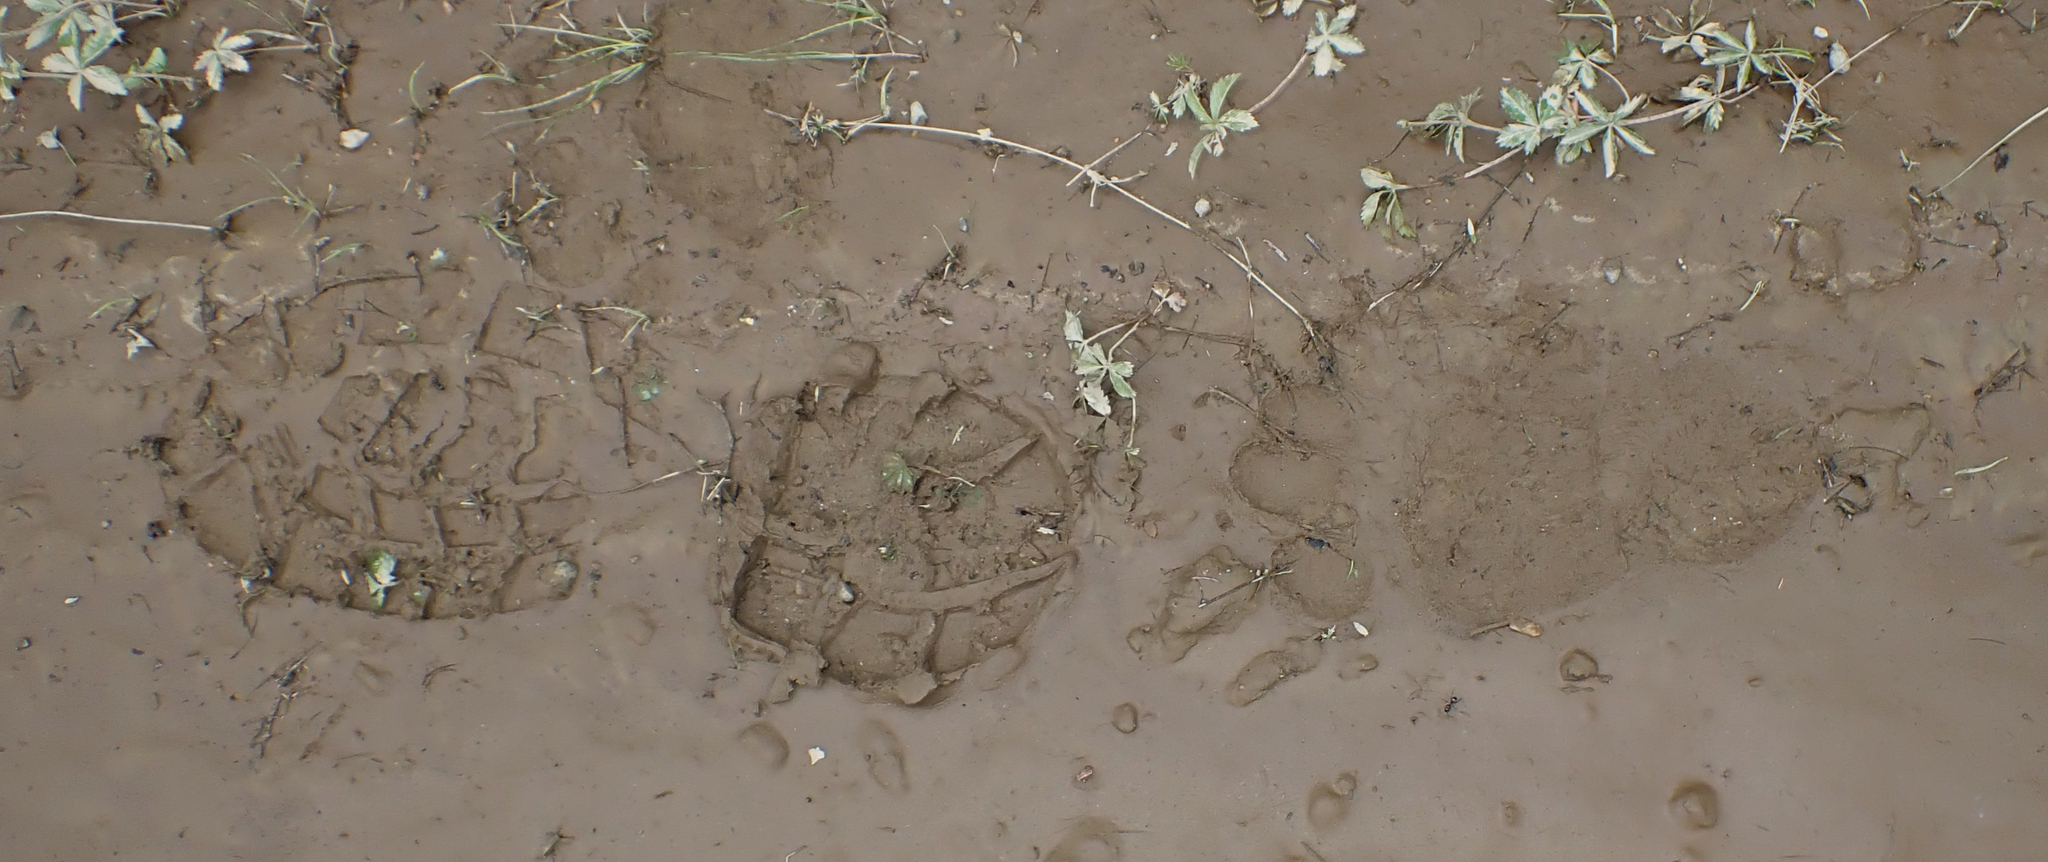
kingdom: Animalia
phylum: Chordata
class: Mammalia
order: Carnivora
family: Ursidae
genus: Ursus
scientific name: Ursus americanus
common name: American black bear
